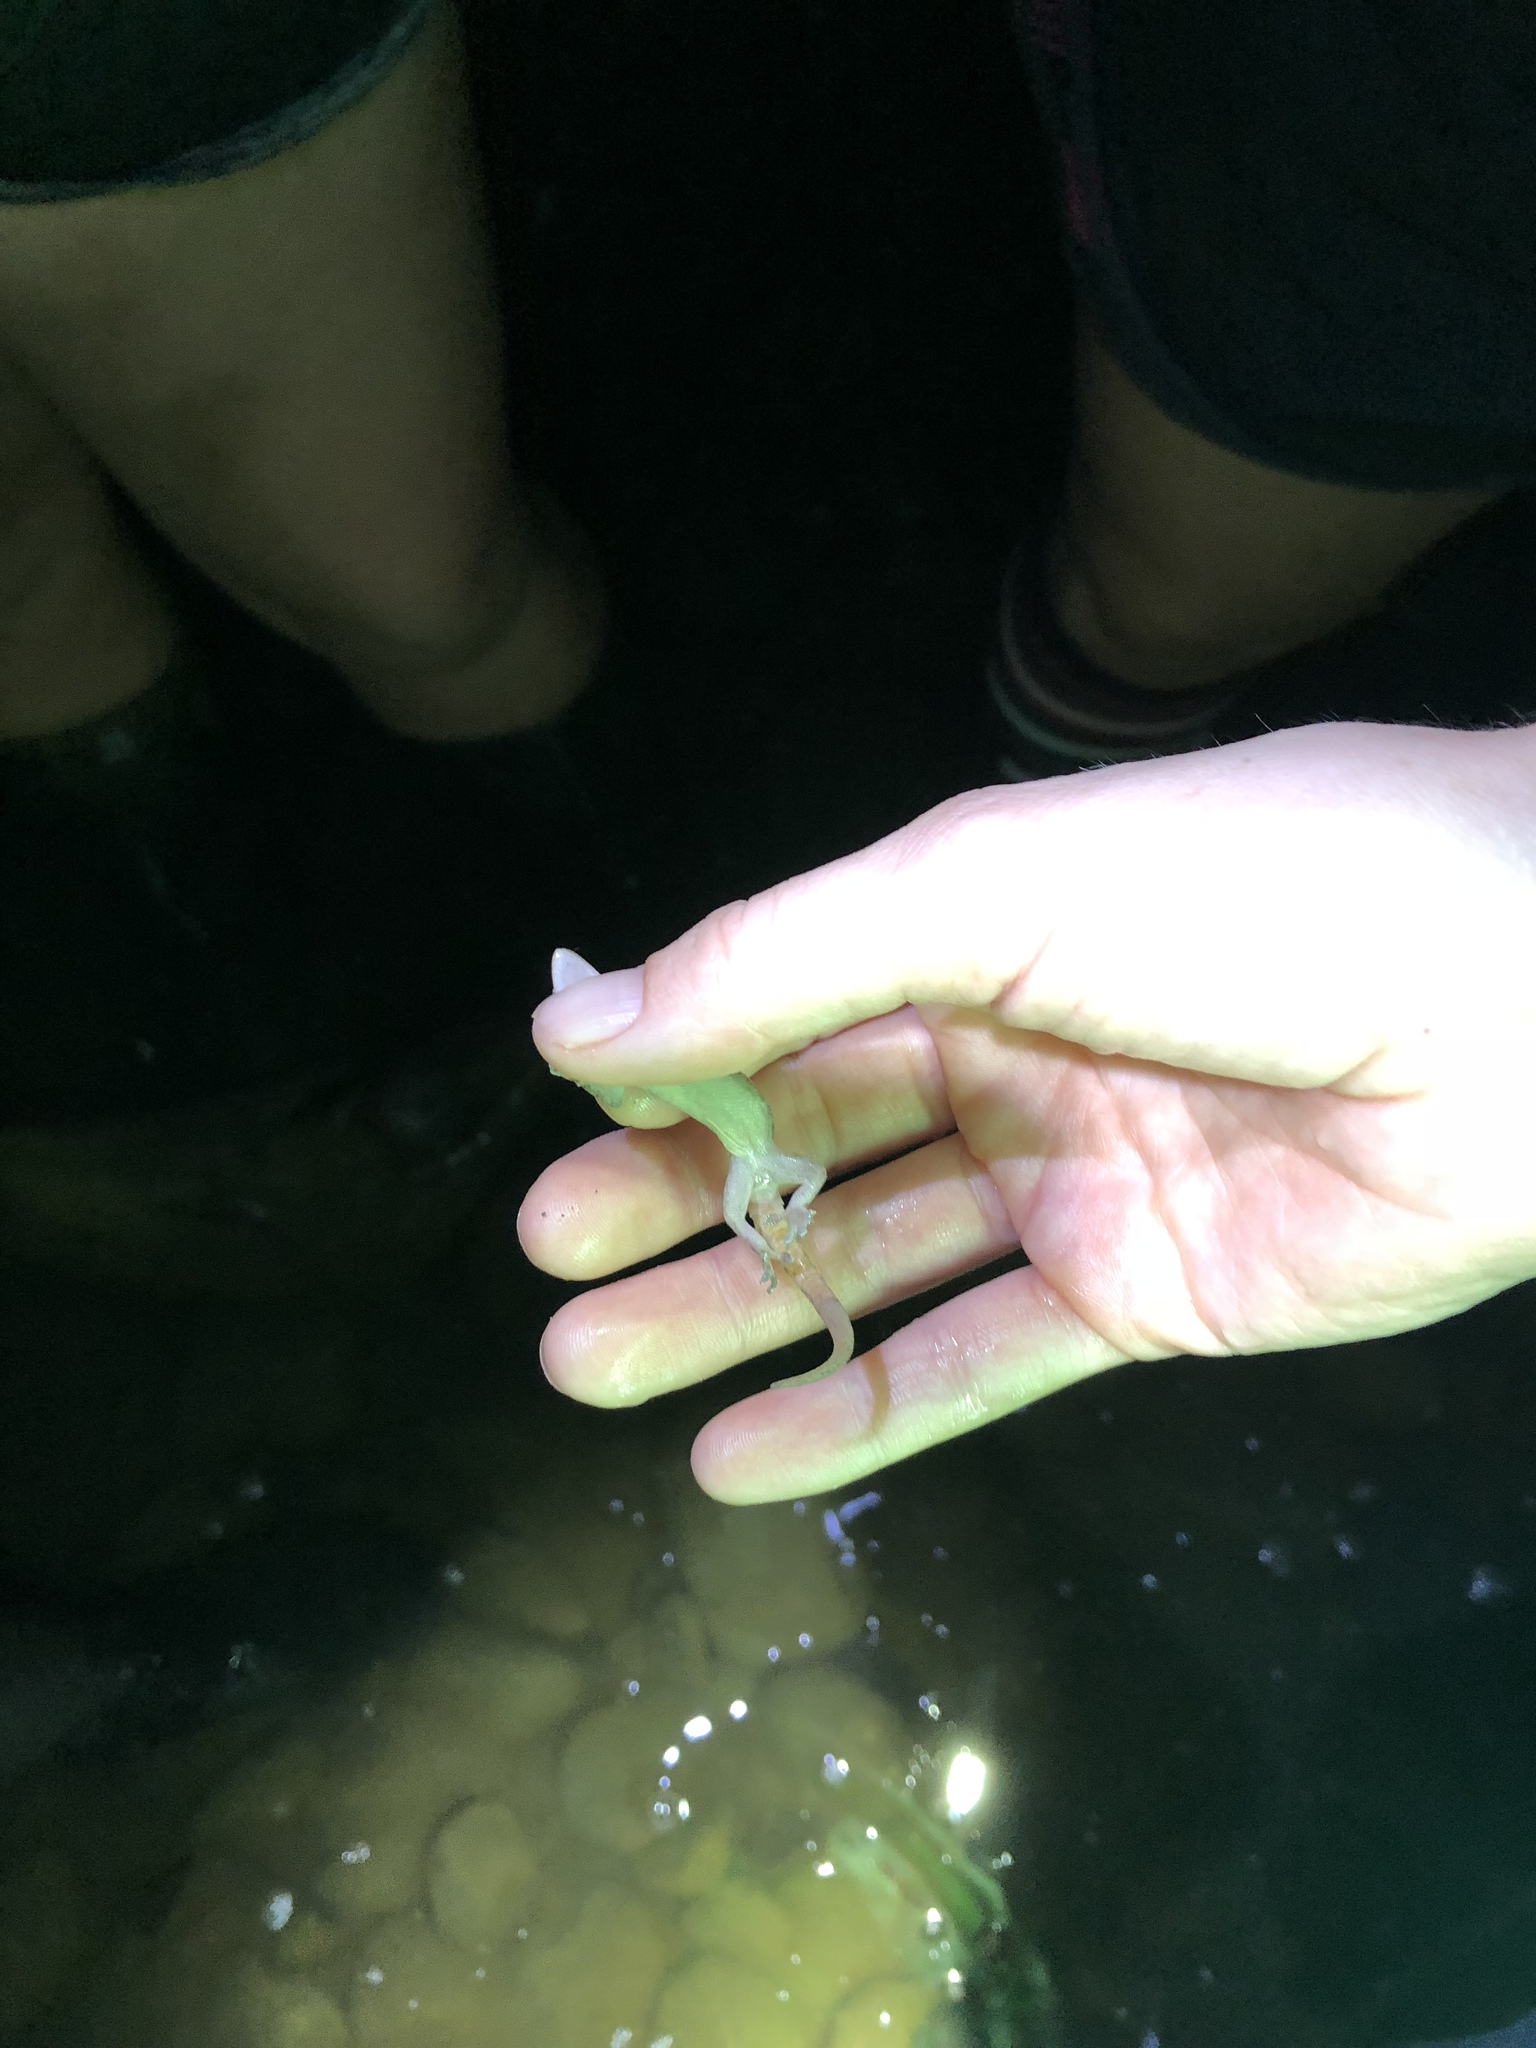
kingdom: Animalia
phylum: Chordata
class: Squamata
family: Gekkonidae
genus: Hemidactylus
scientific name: Hemidactylus frenatus
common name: Common house gecko
